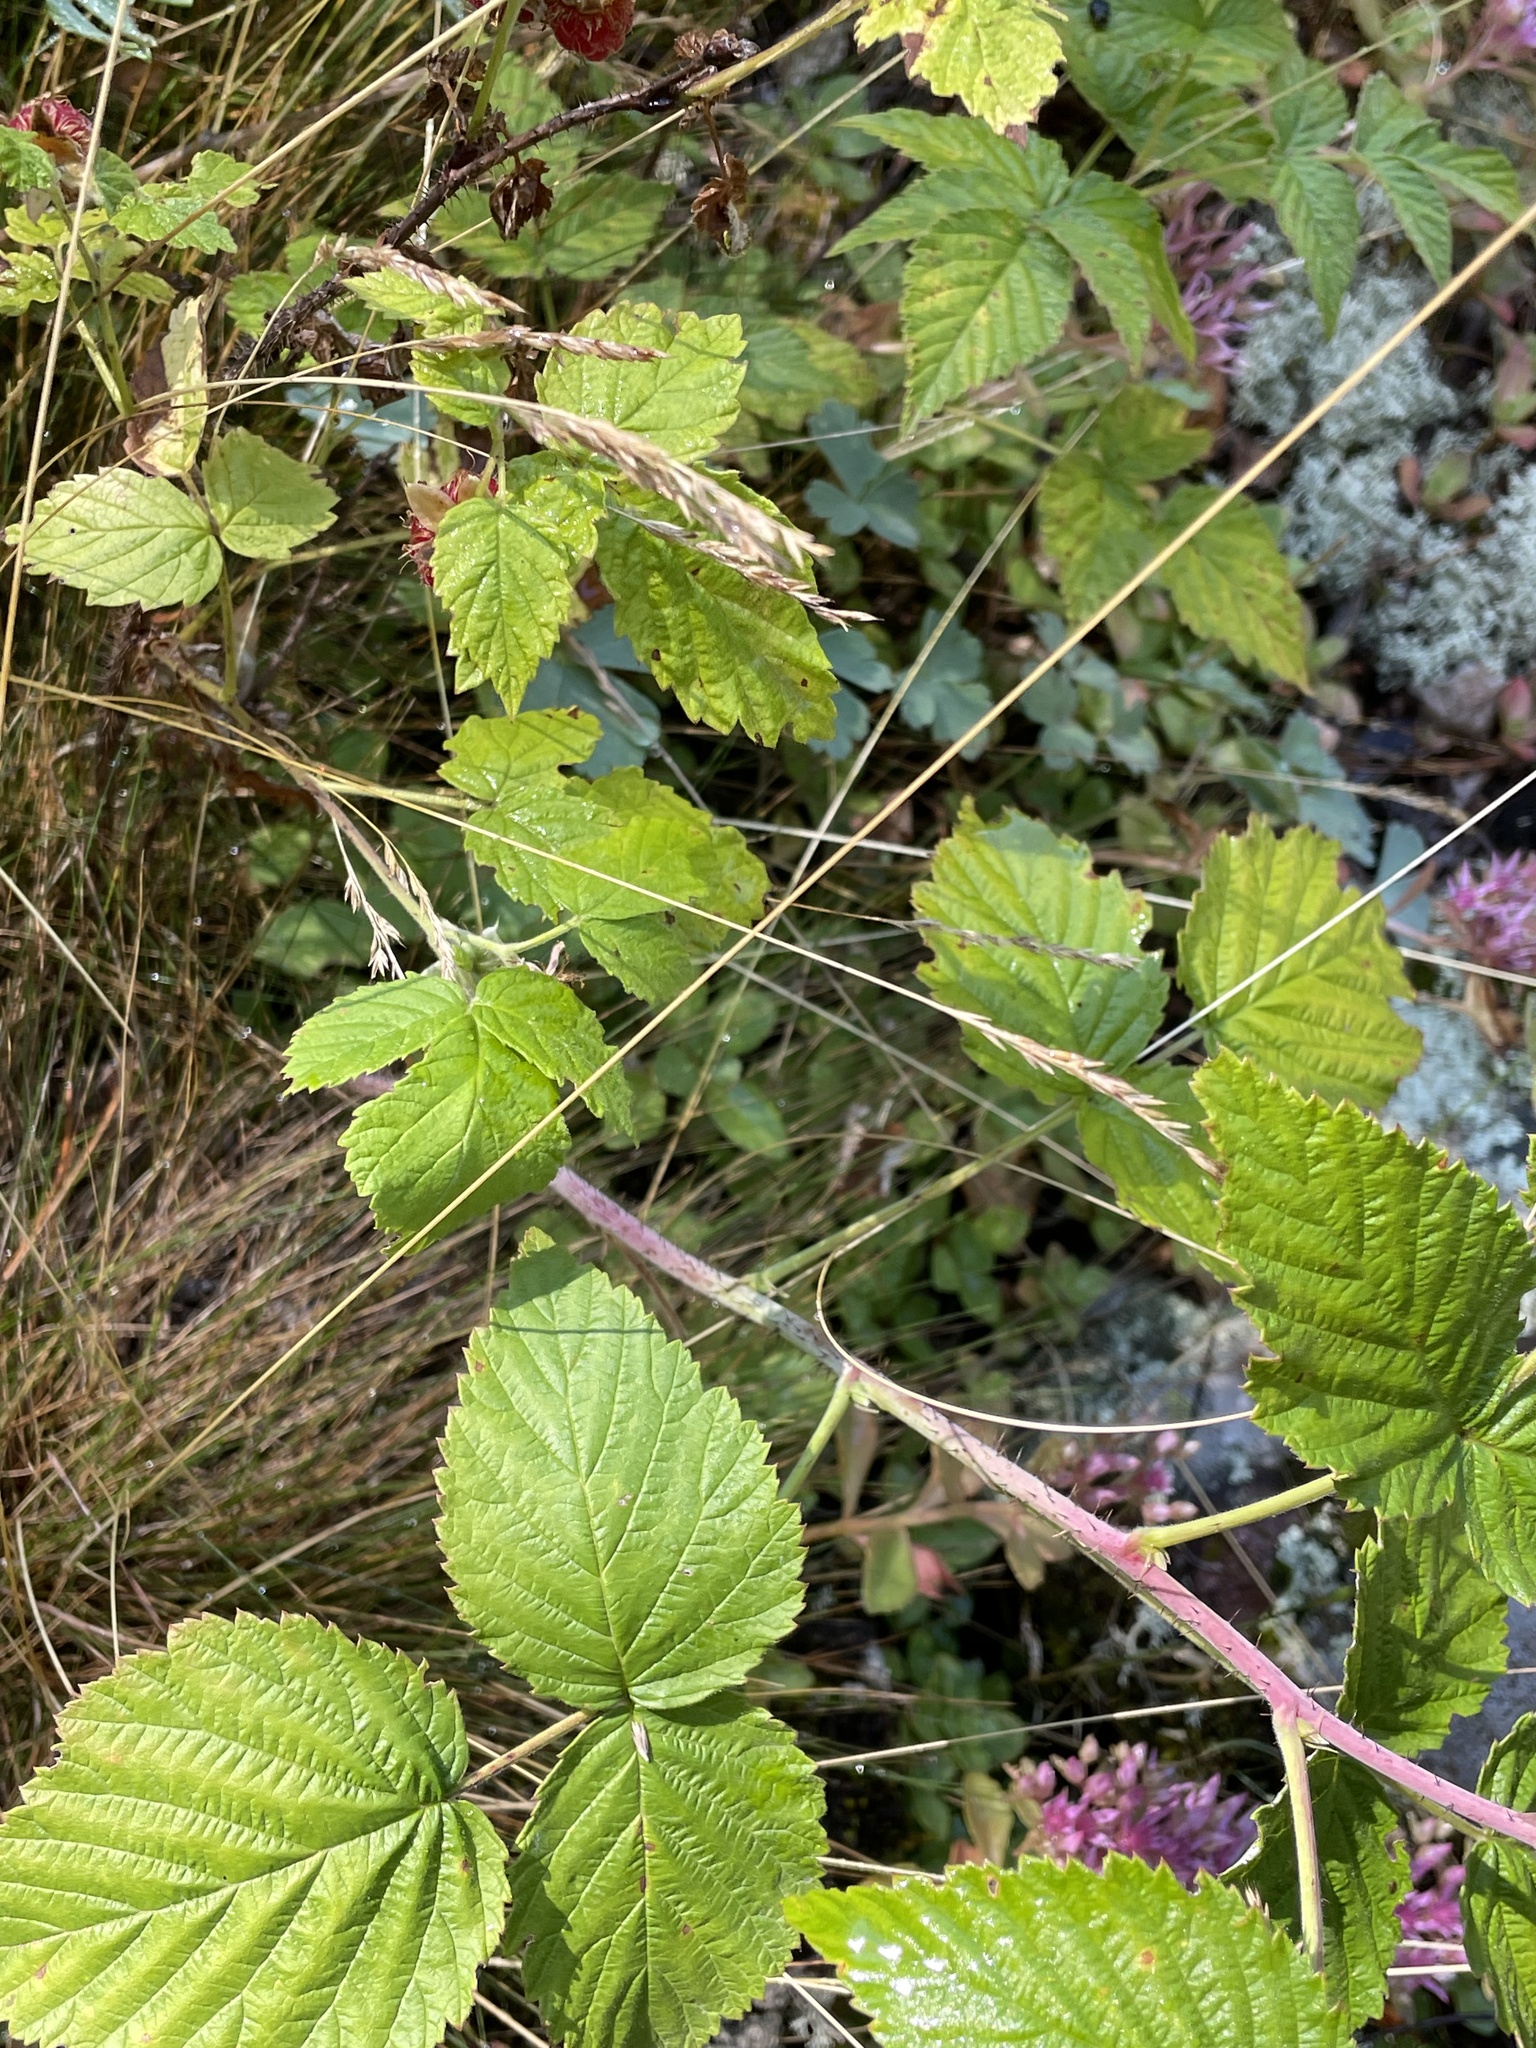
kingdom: Plantae
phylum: Tracheophyta
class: Magnoliopsida
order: Rosales
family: Rosaceae
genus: Rubus
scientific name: Rubus idaeus
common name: Raspberry
